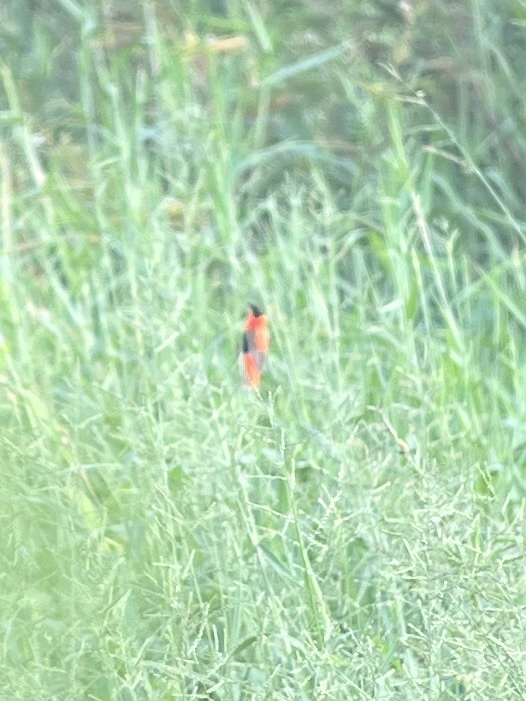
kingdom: Animalia
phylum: Chordata
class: Aves
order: Passeriformes
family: Ploceidae
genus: Euplectes
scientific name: Euplectes franciscanus
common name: Northern red bishop
